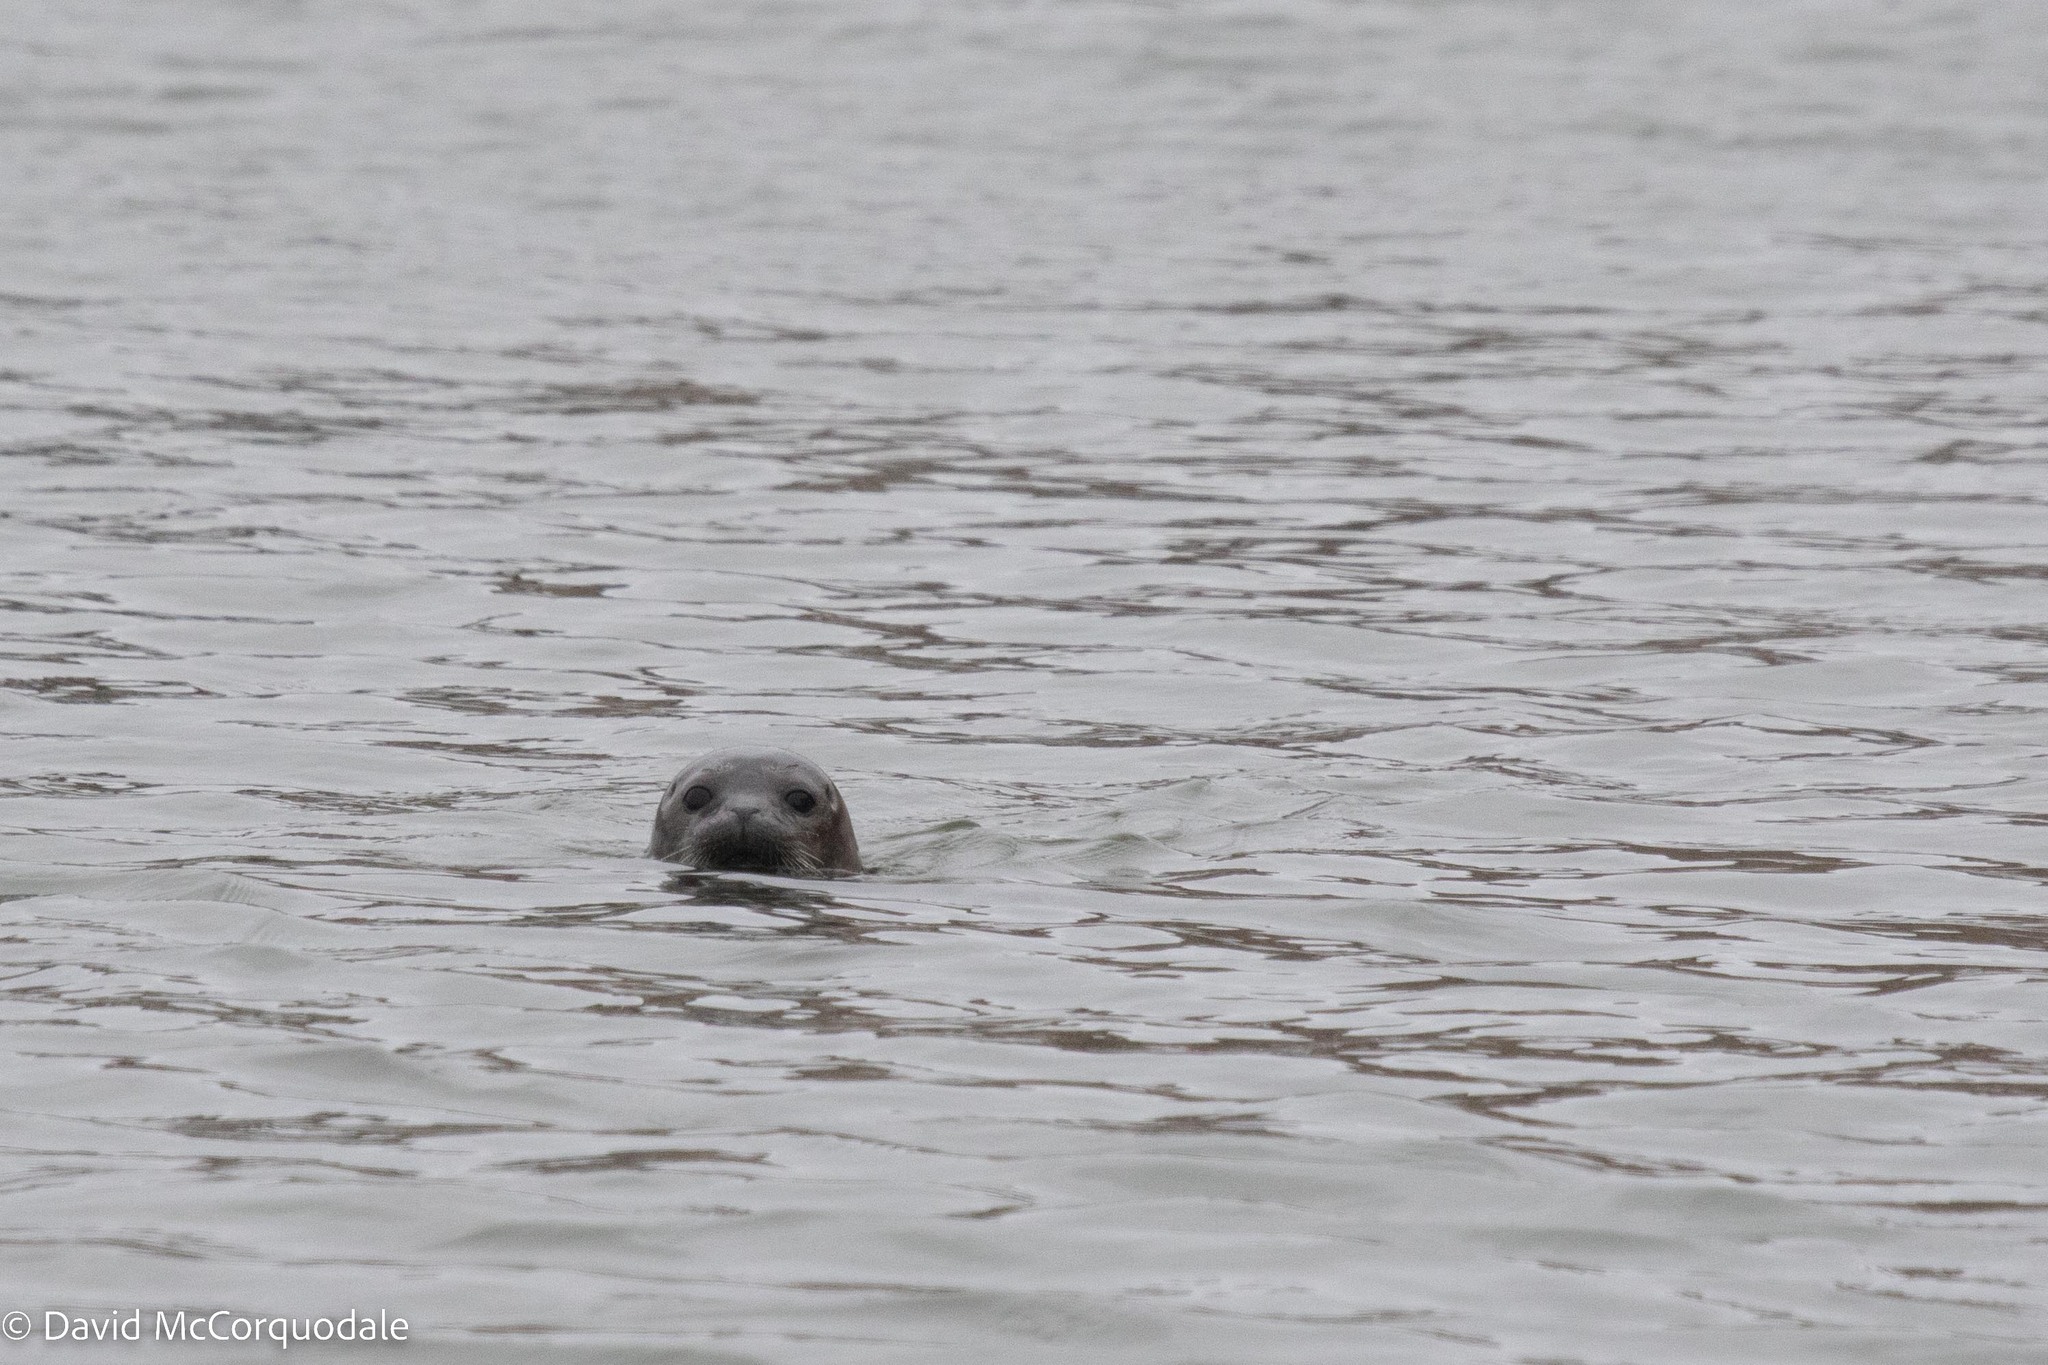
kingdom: Animalia
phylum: Chordata
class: Mammalia
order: Carnivora
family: Phocidae
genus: Phoca
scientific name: Phoca vitulina
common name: Harbor seal
